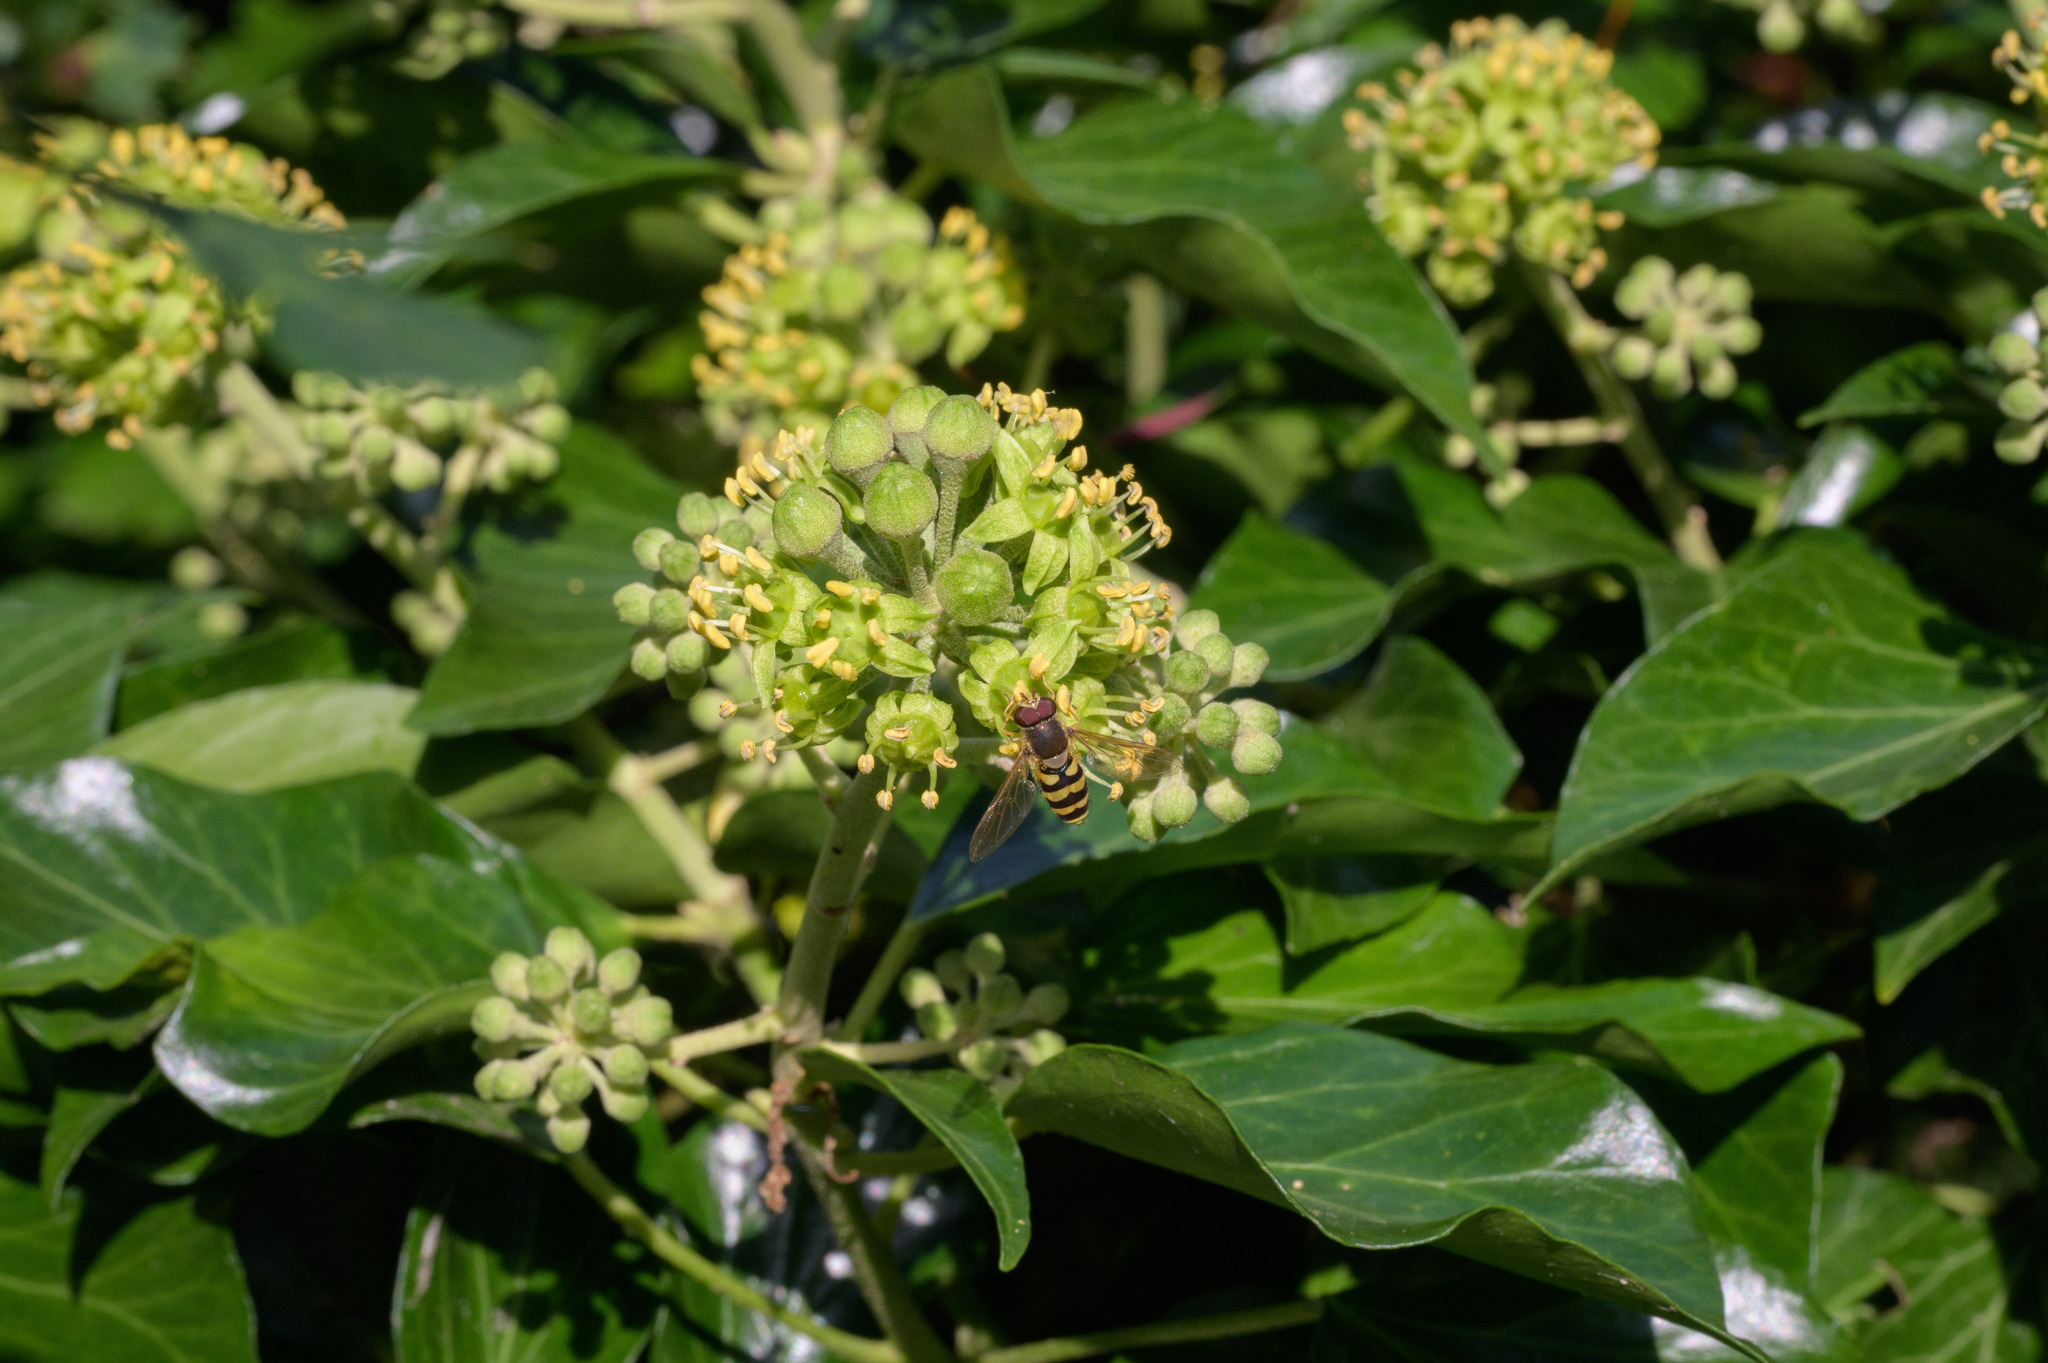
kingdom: Animalia
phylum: Arthropoda
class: Insecta
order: Diptera
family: Syrphidae
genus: Syrphus
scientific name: Syrphus
